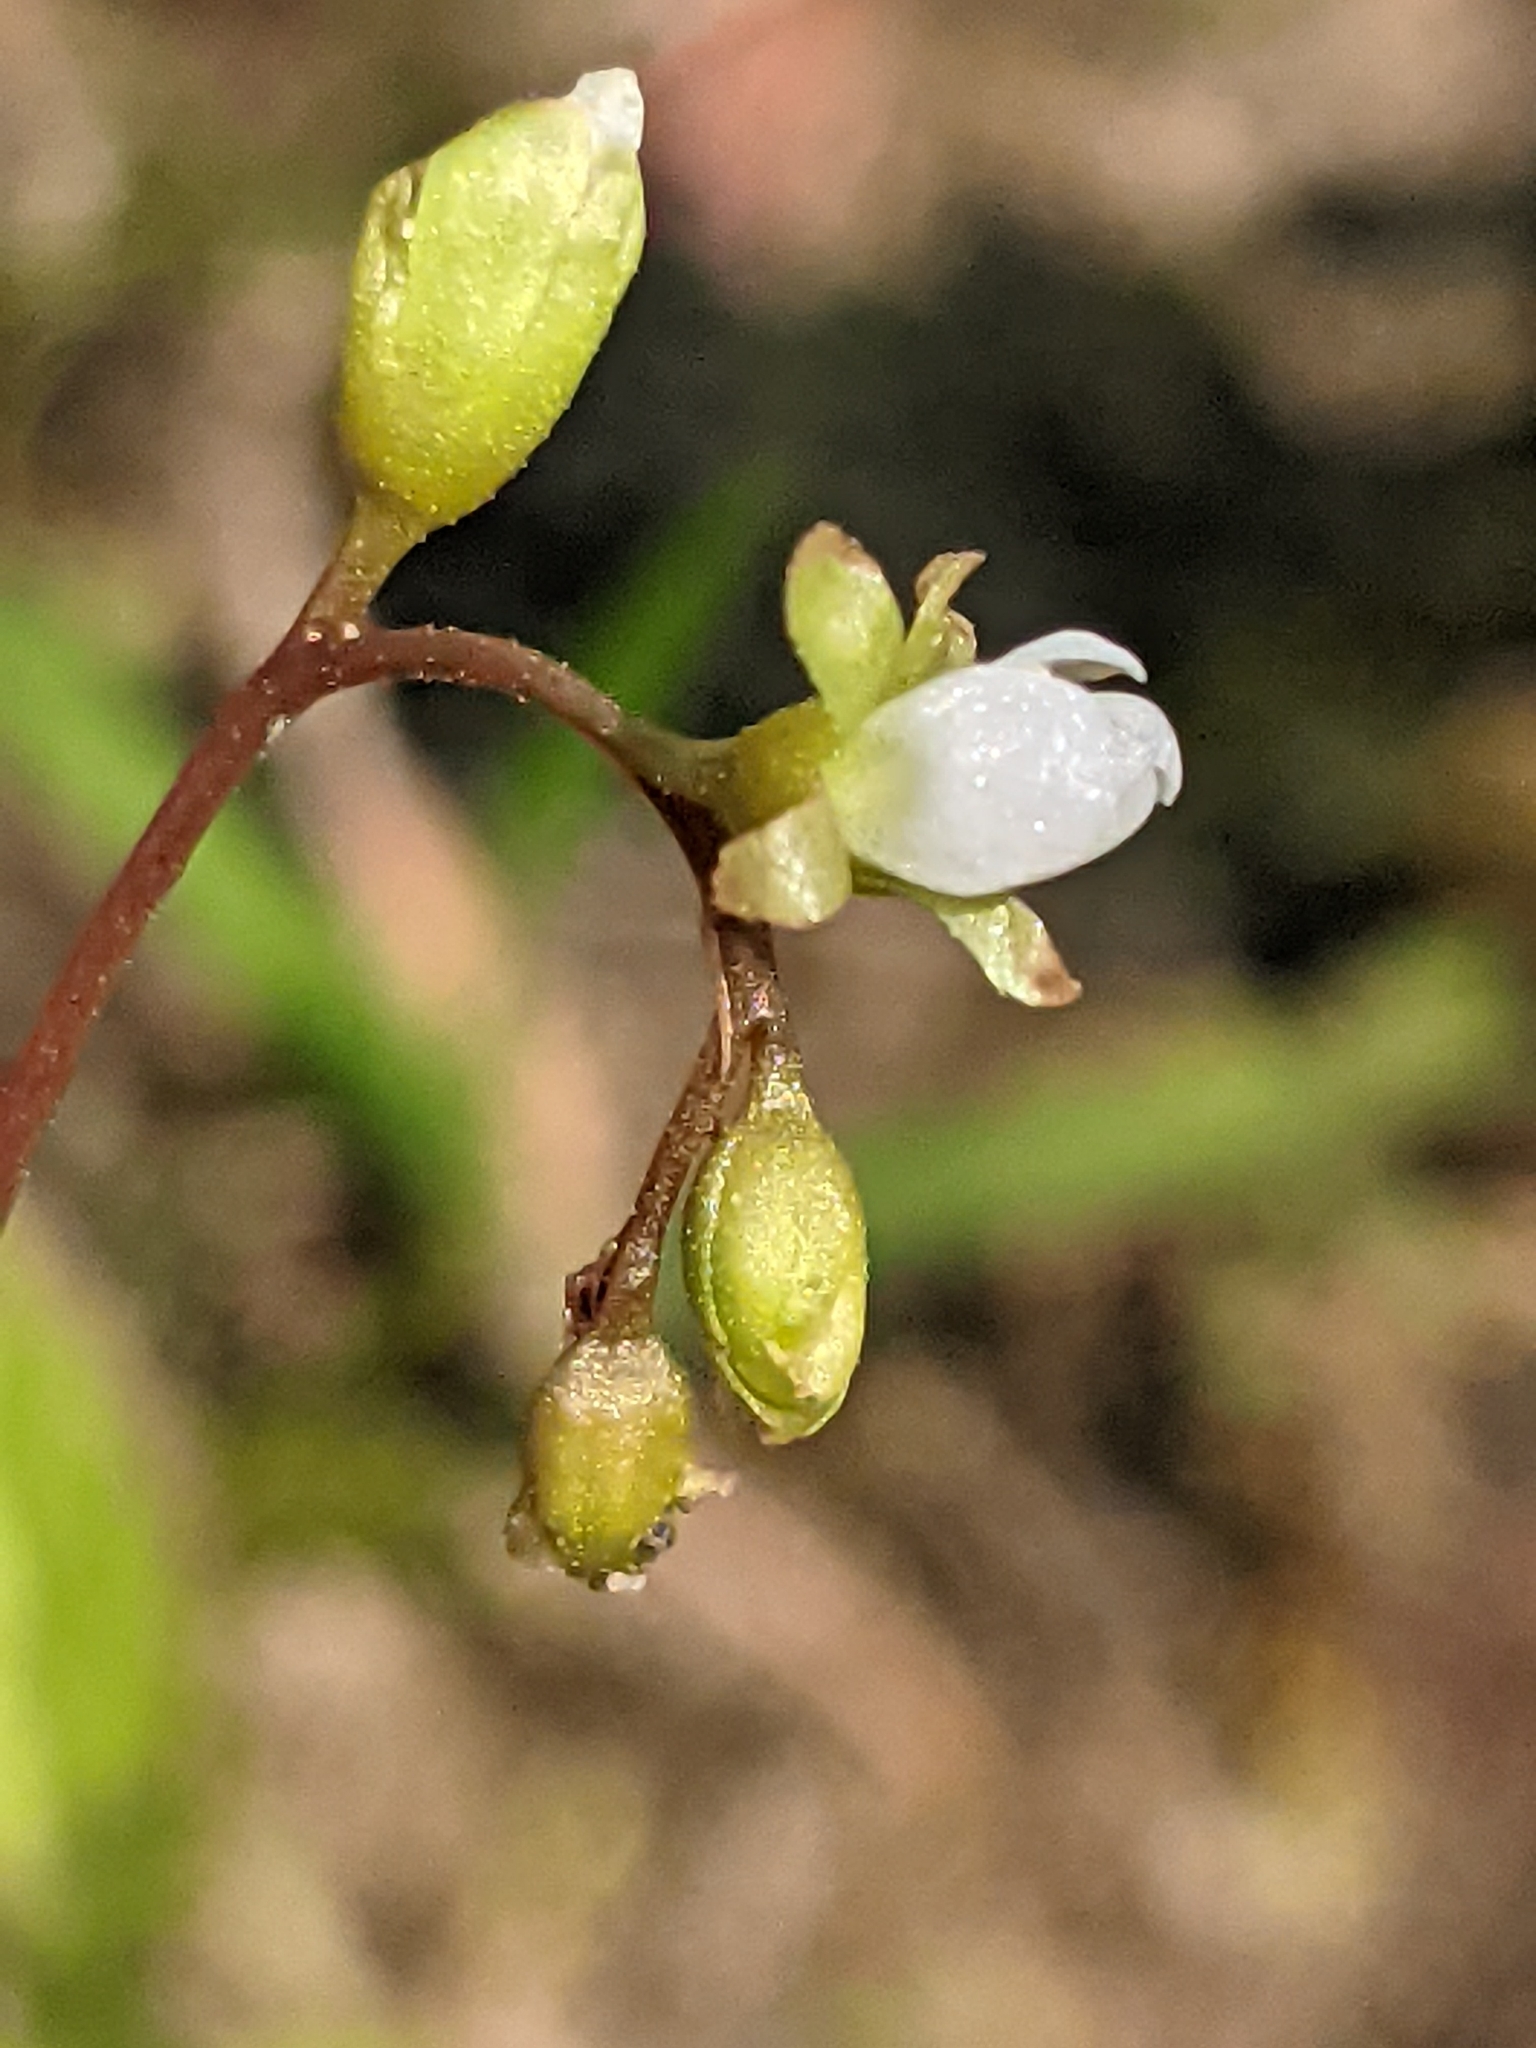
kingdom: Plantae
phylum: Tracheophyta
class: Magnoliopsida
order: Caryophyllales
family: Droseraceae
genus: Drosera
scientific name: Drosera rotundifolia
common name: Round-leaved sundew
